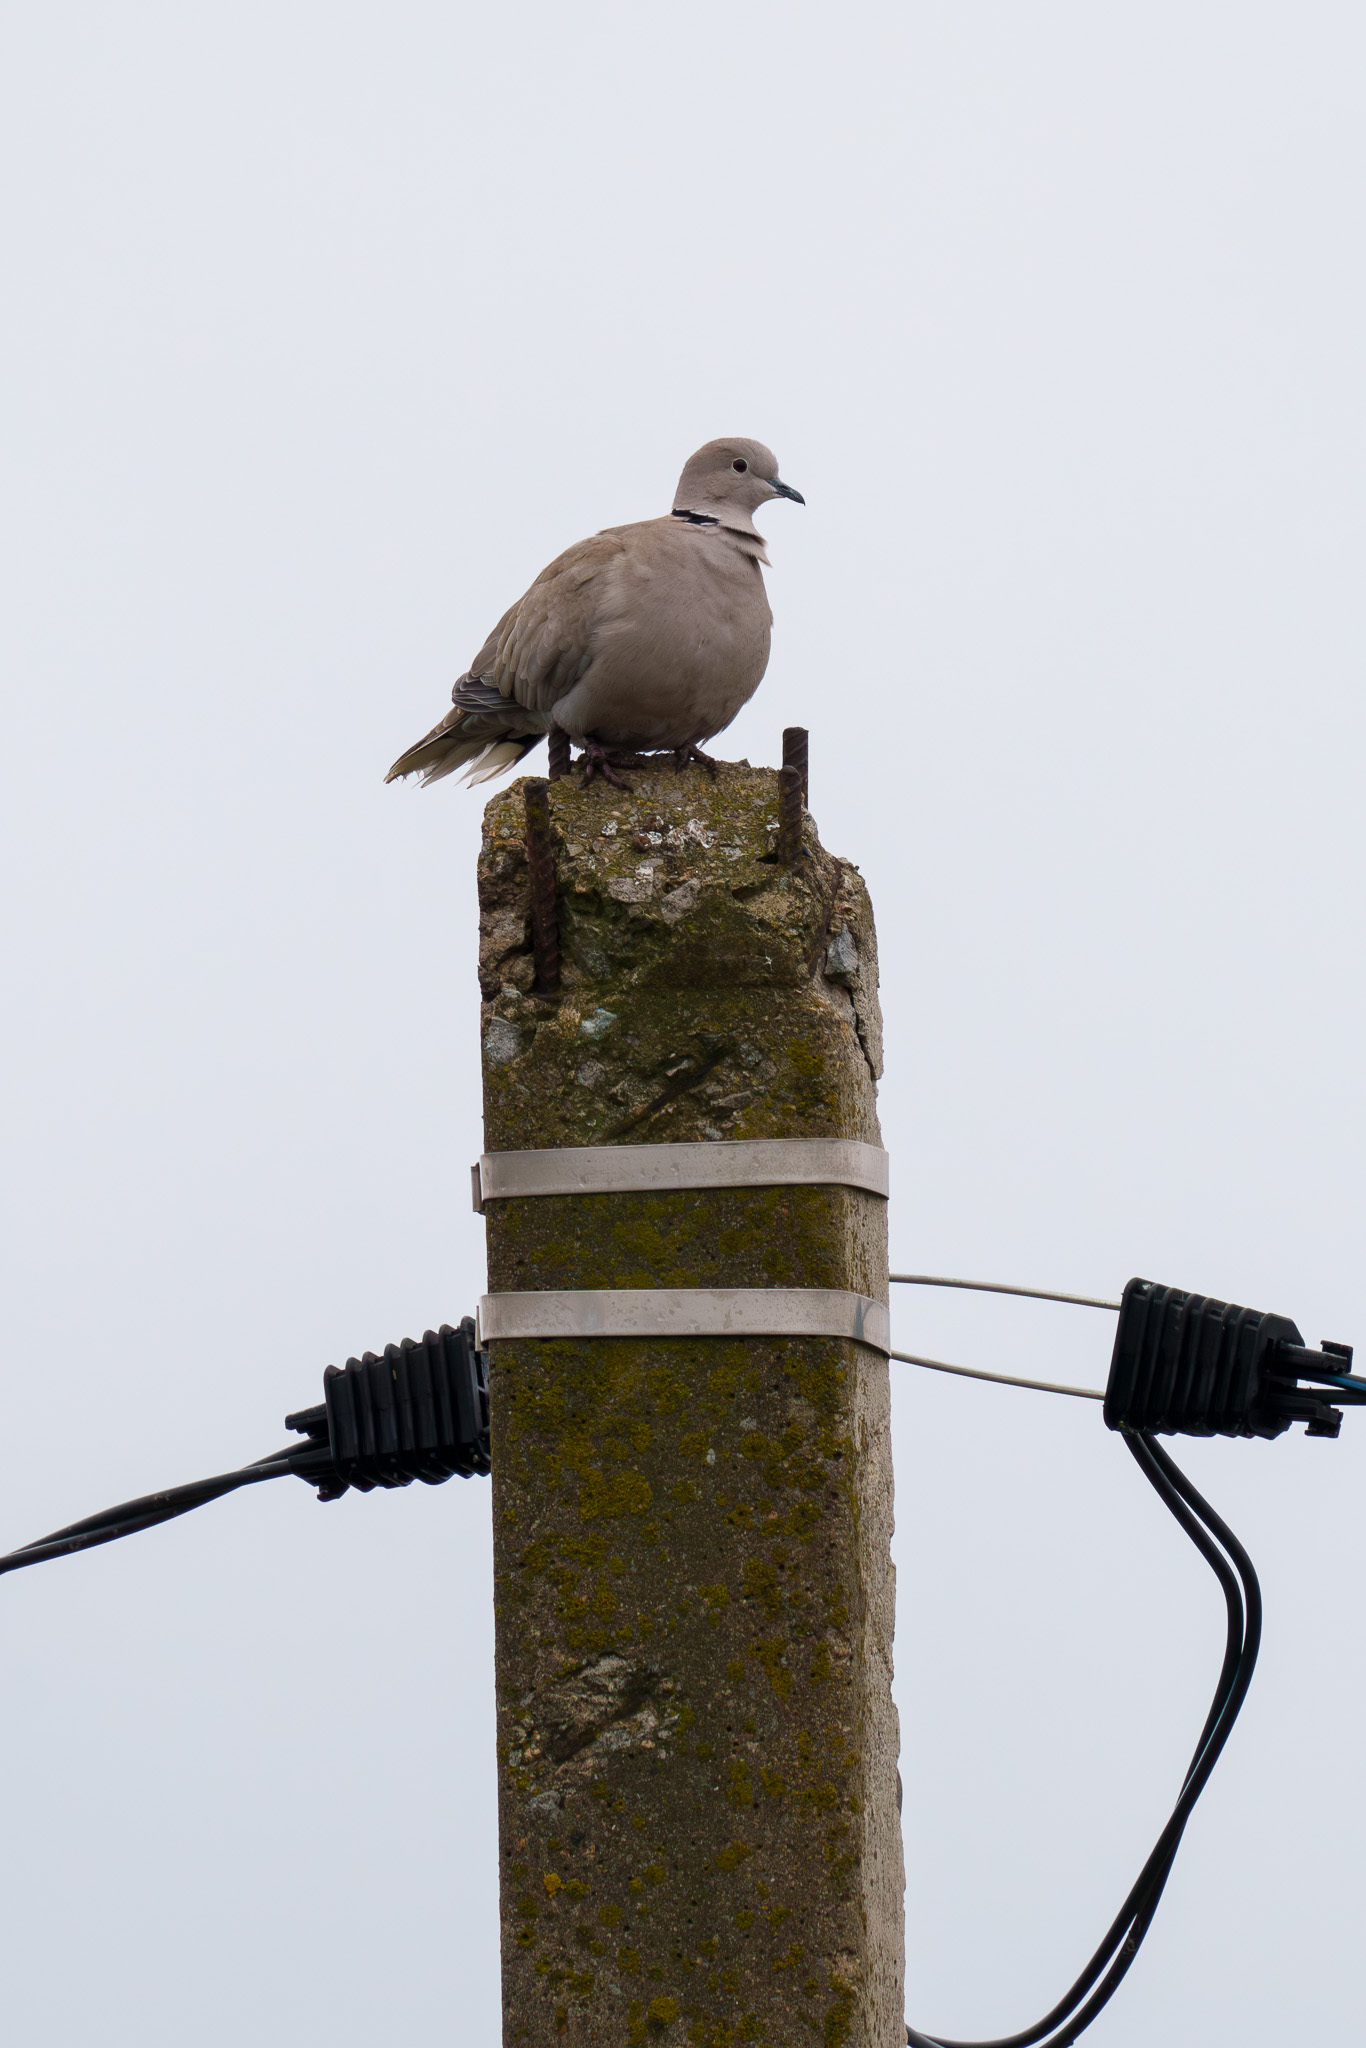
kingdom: Animalia
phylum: Chordata
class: Aves
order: Columbiformes
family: Columbidae
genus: Streptopelia
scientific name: Streptopelia decaocto
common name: Eurasian collared dove
